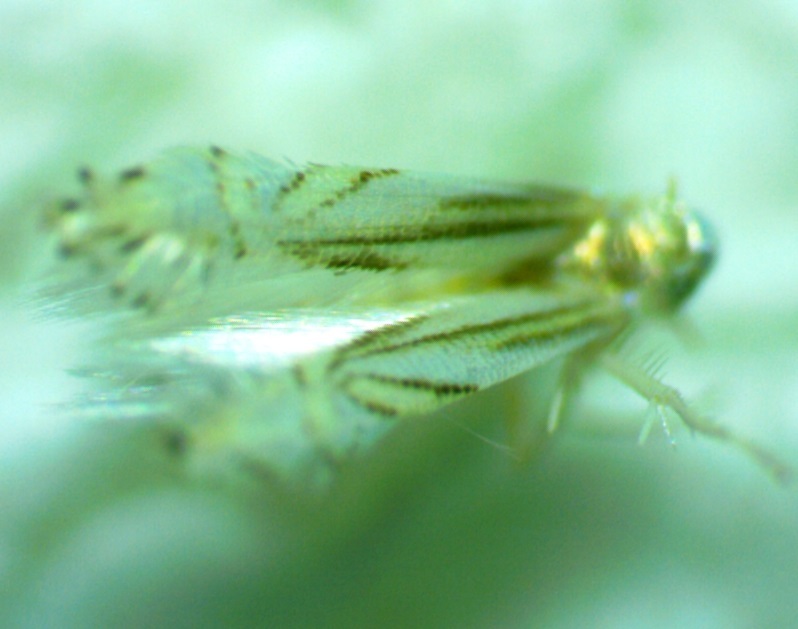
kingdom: Animalia
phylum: Arthropoda
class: Insecta
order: Lepidoptera
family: Gracillariidae
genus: Phyllocnistis
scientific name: Phyllocnistis liriodendronella
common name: Tulip tree leaf miner
